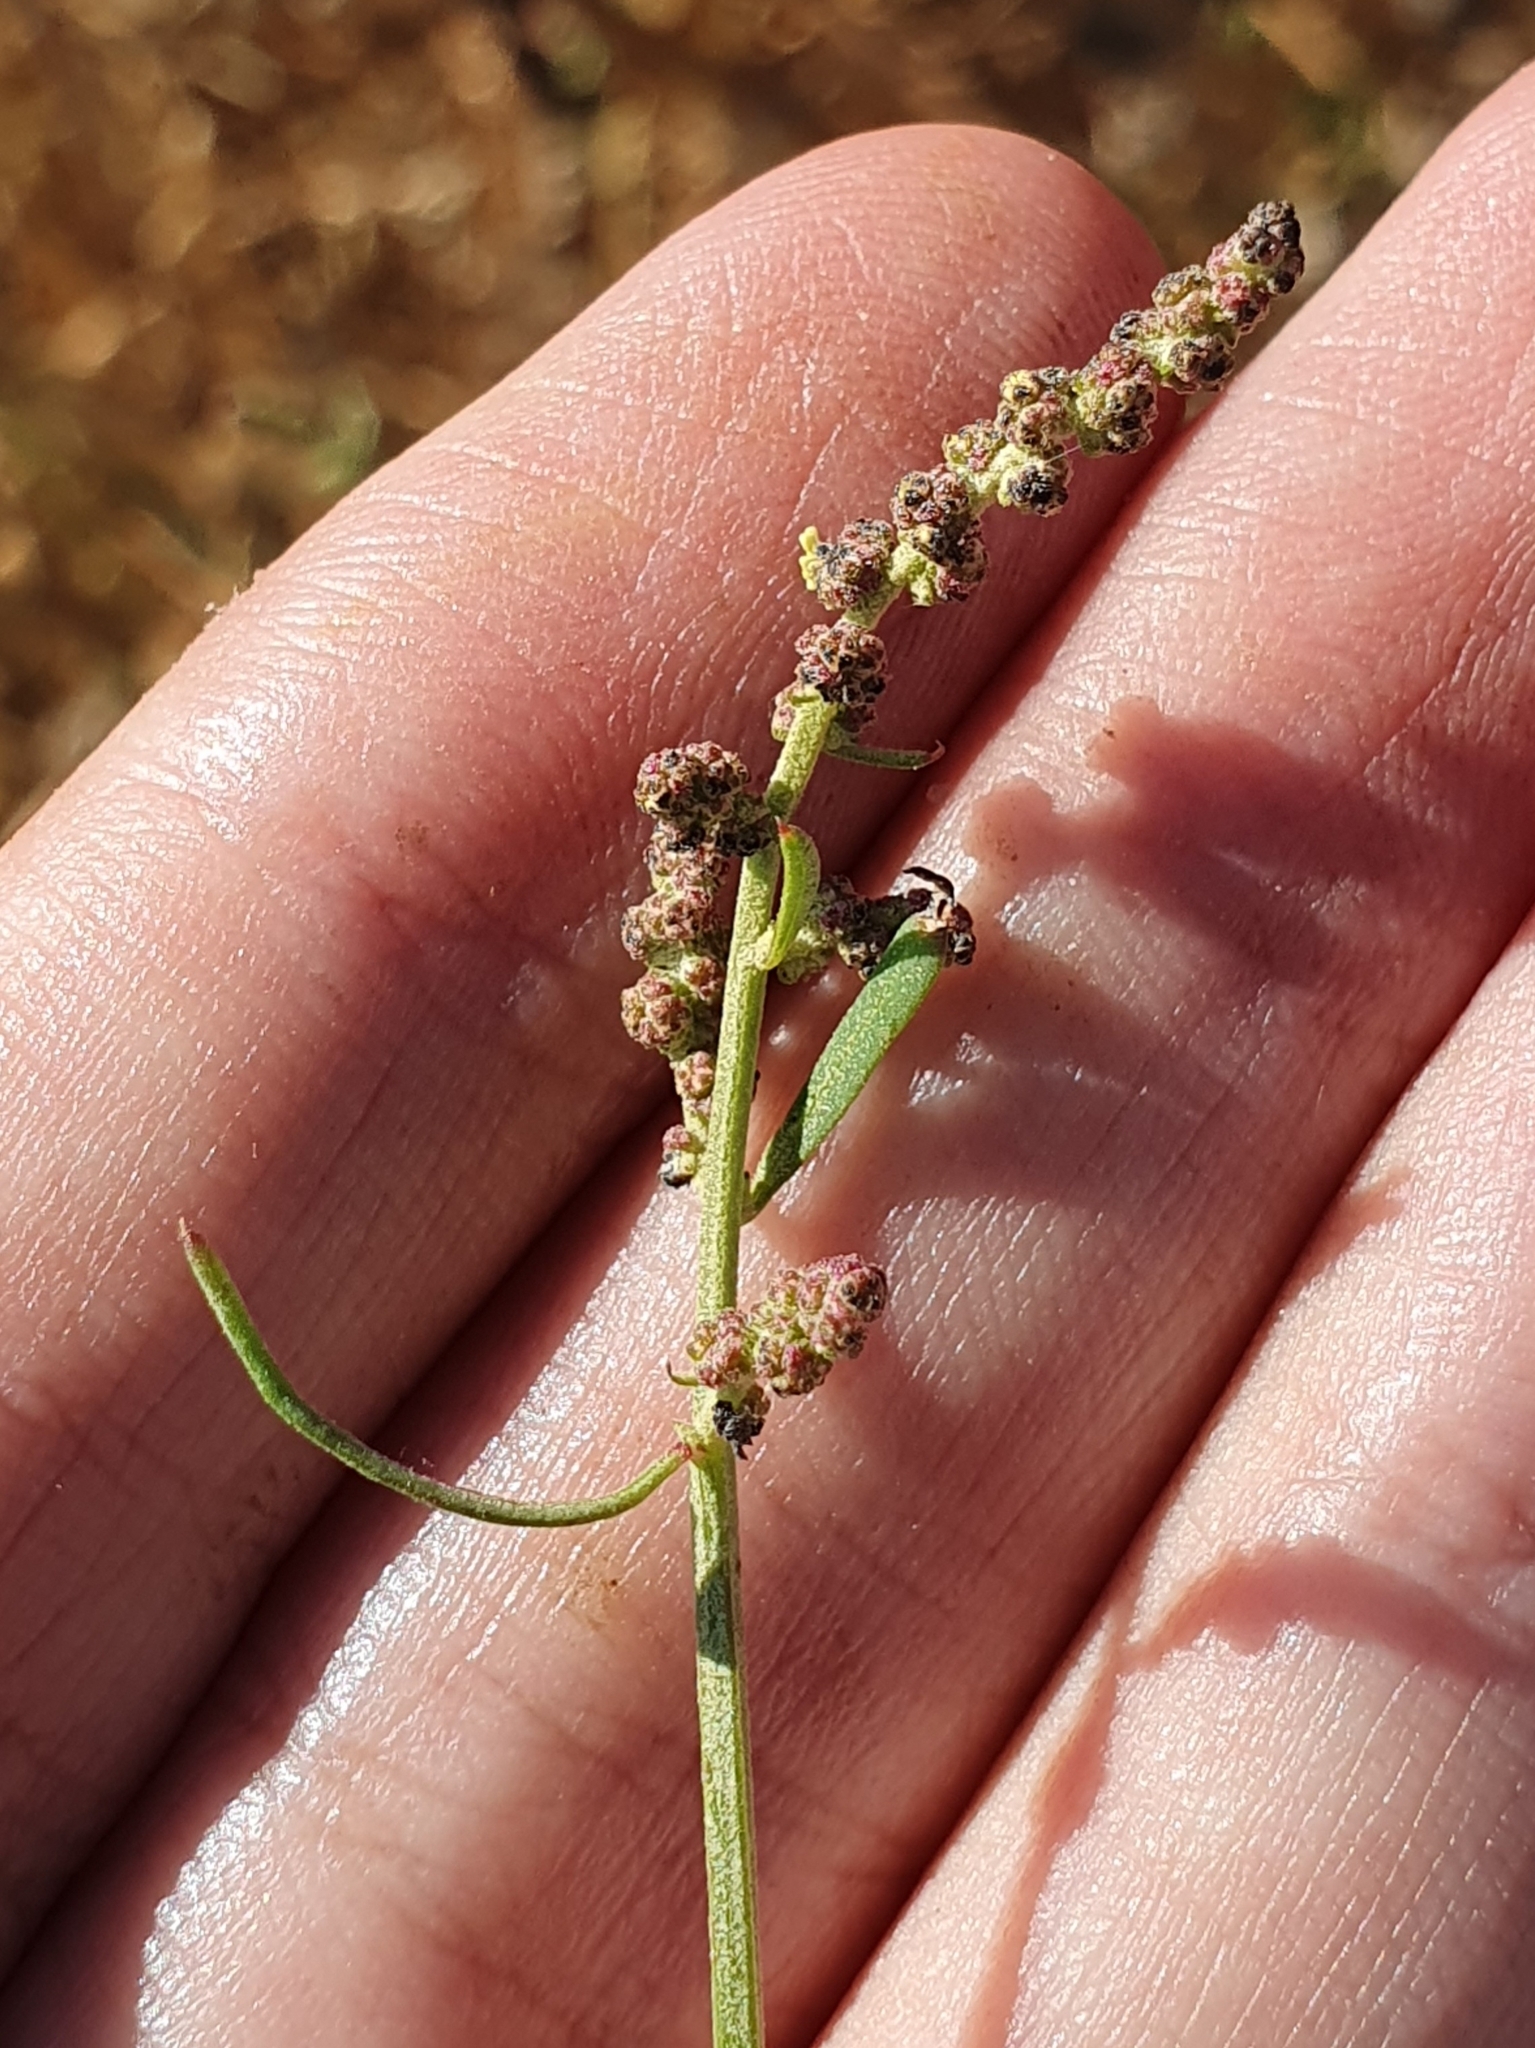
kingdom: Plantae
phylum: Tracheophyta
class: Magnoliopsida
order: Caryophyllales
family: Amaranthaceae
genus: Atriplex
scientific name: Atriplex patula
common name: Common orache
